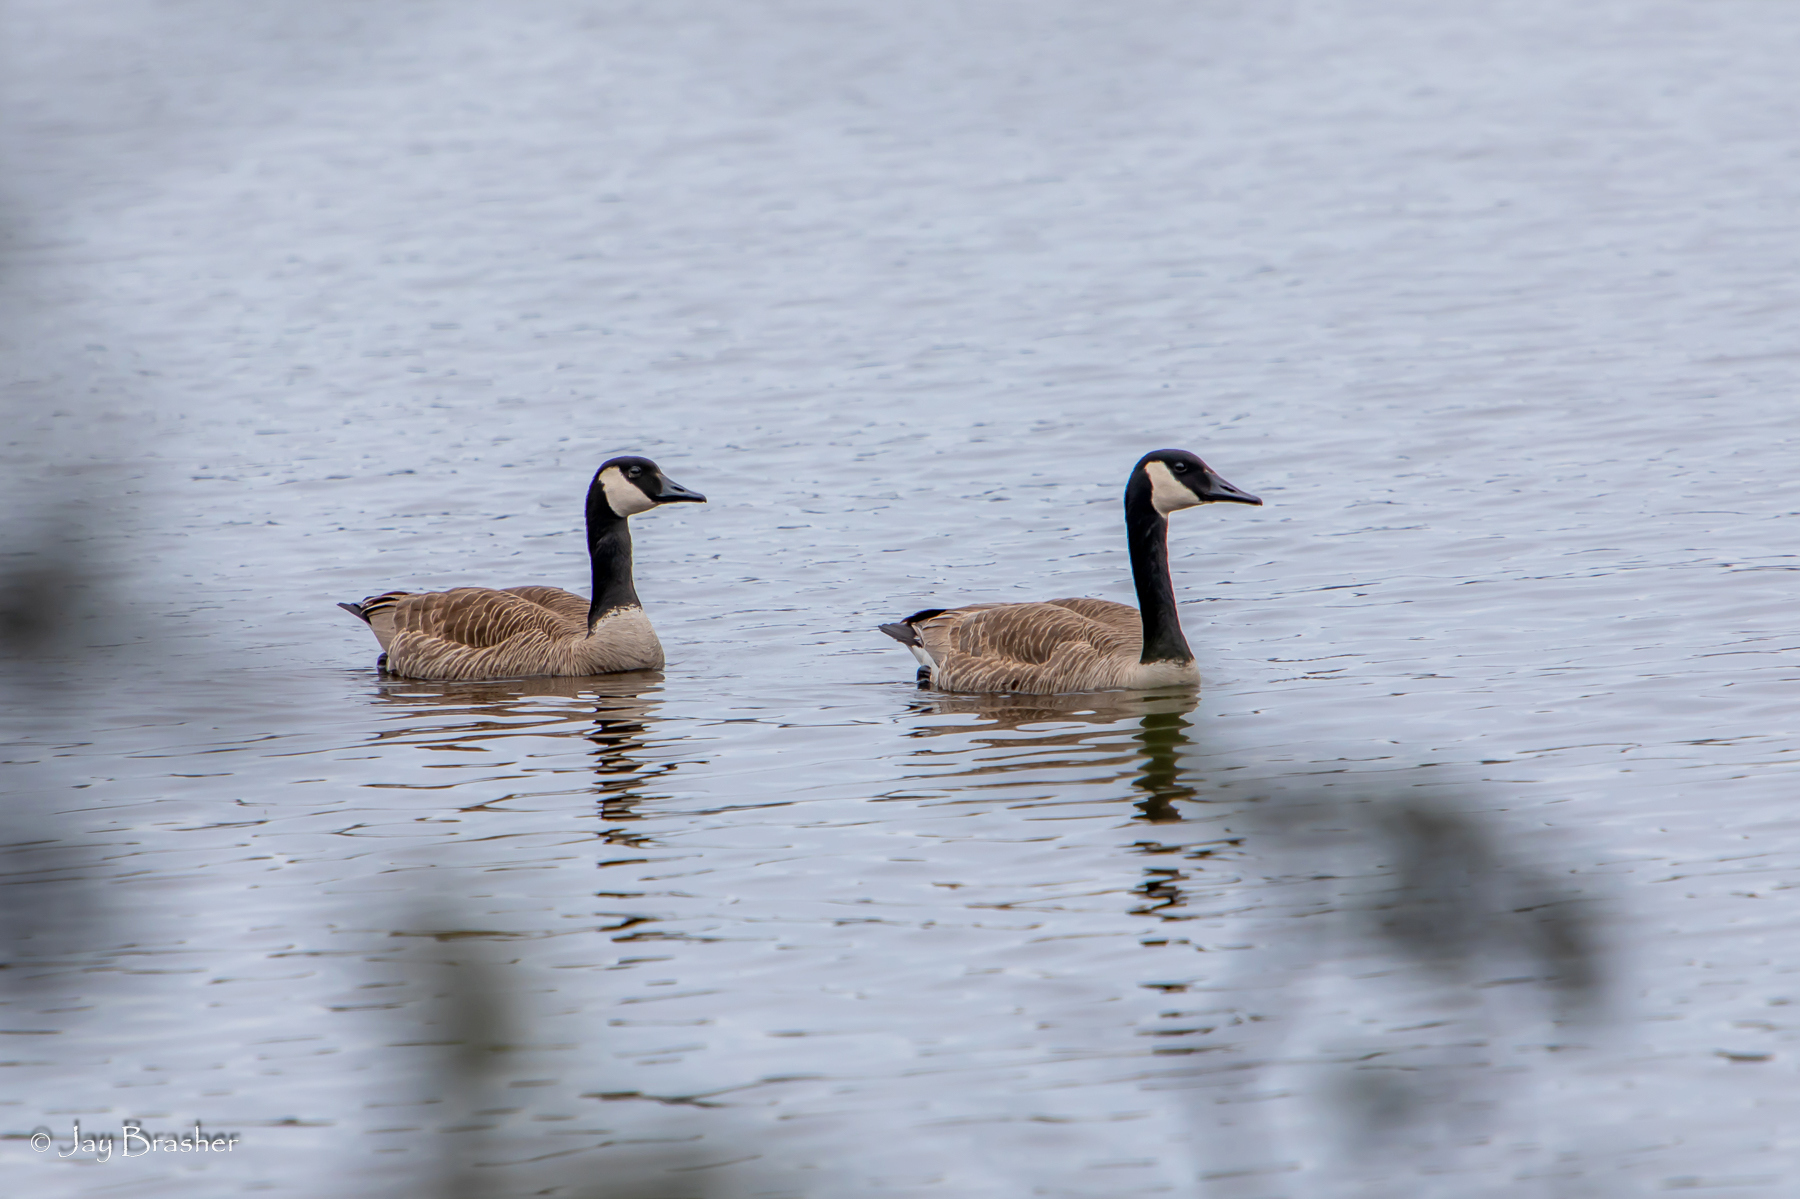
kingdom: Animalia
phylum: Chordata
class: Aves
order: Anseriformes
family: Anatidae
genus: Branta
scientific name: Branta canadensis
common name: Canada goose
